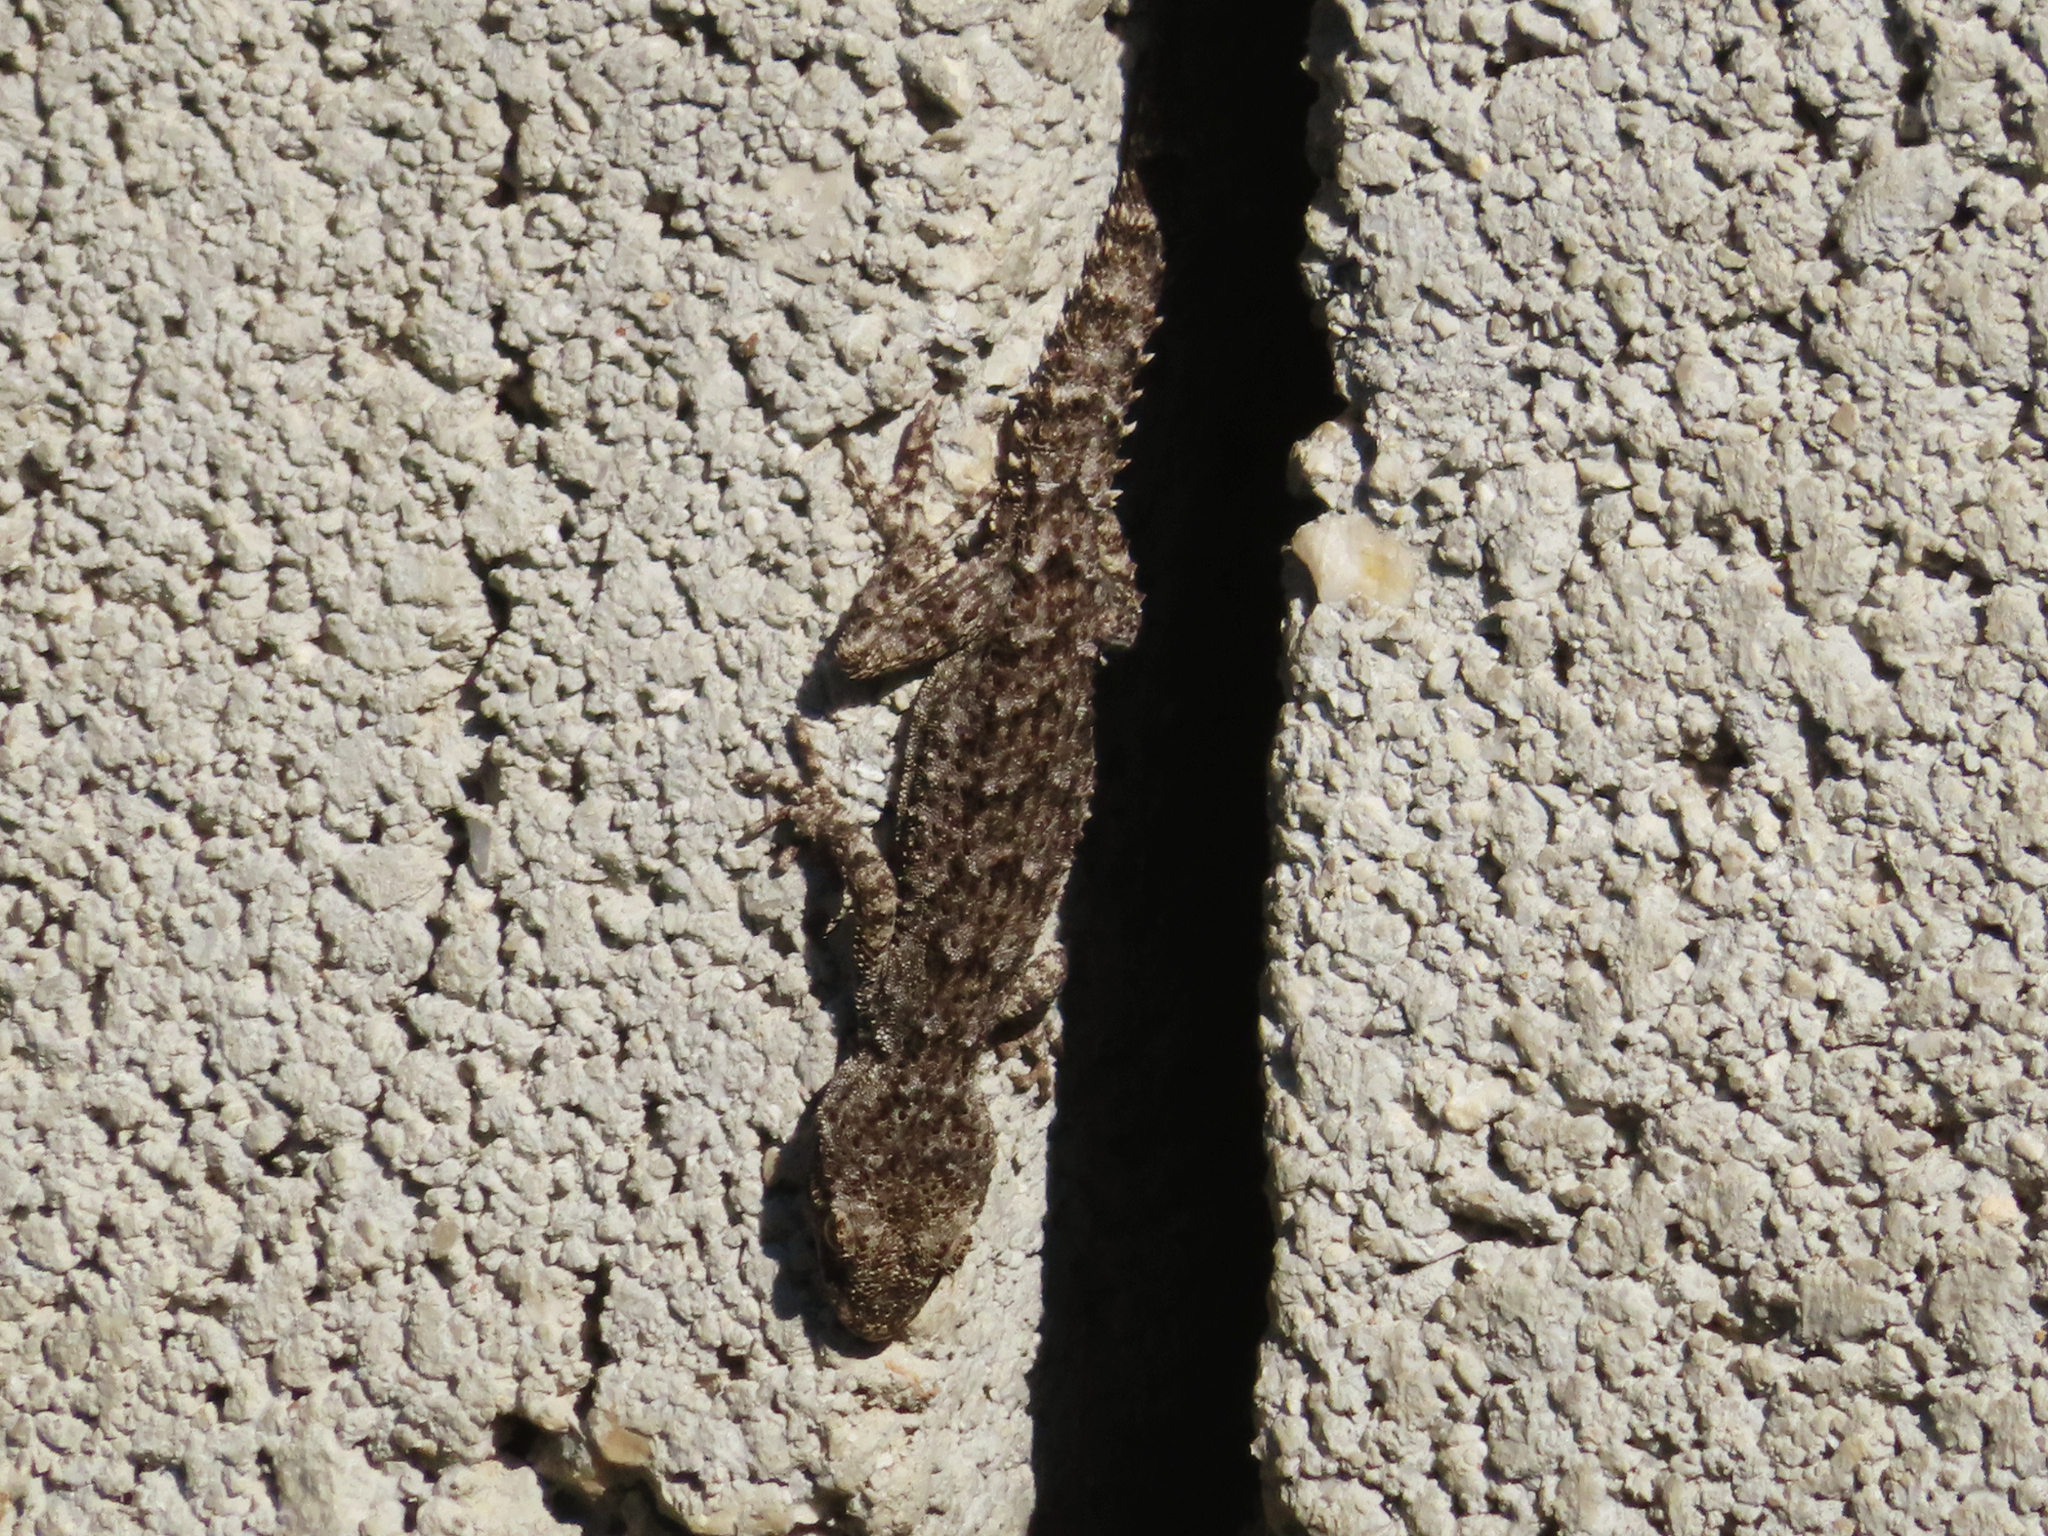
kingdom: Animalia
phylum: Chordata
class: Squamata
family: Gekkonidae
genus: Mediodactylus
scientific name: Mediodactylus kotschyi
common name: Kotschy's gecko
